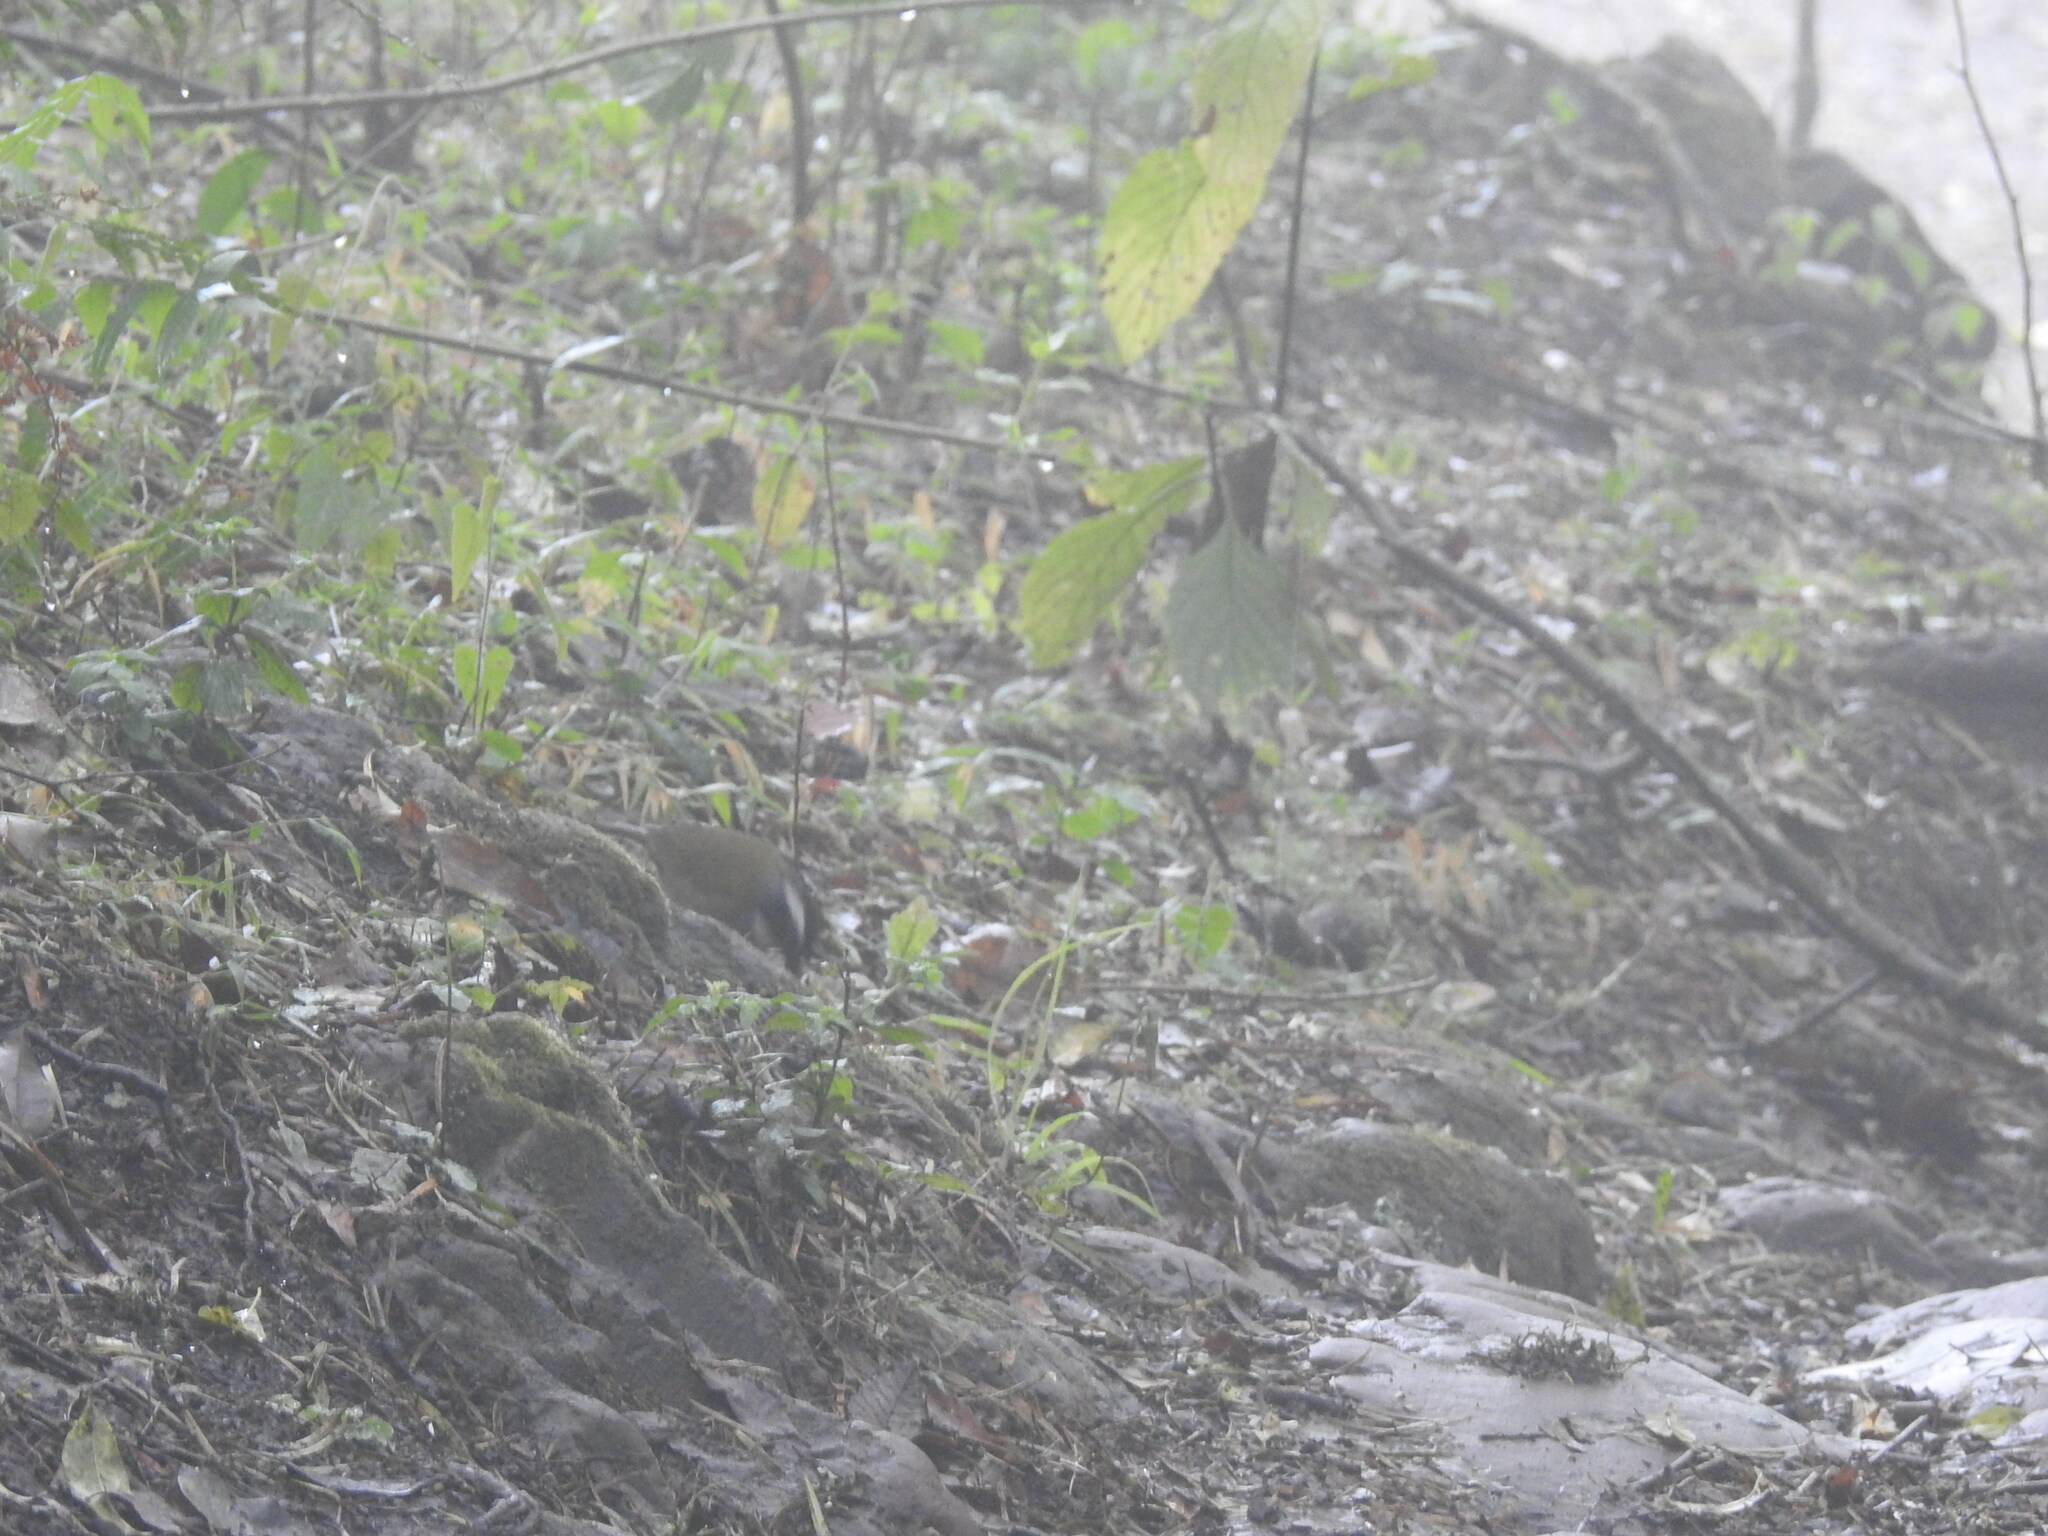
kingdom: Animalia
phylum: Chordata
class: Aves
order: Passeriformes
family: Passerellidae
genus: Arremon
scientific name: Arremon torquatus
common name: White-browed brushfinch
